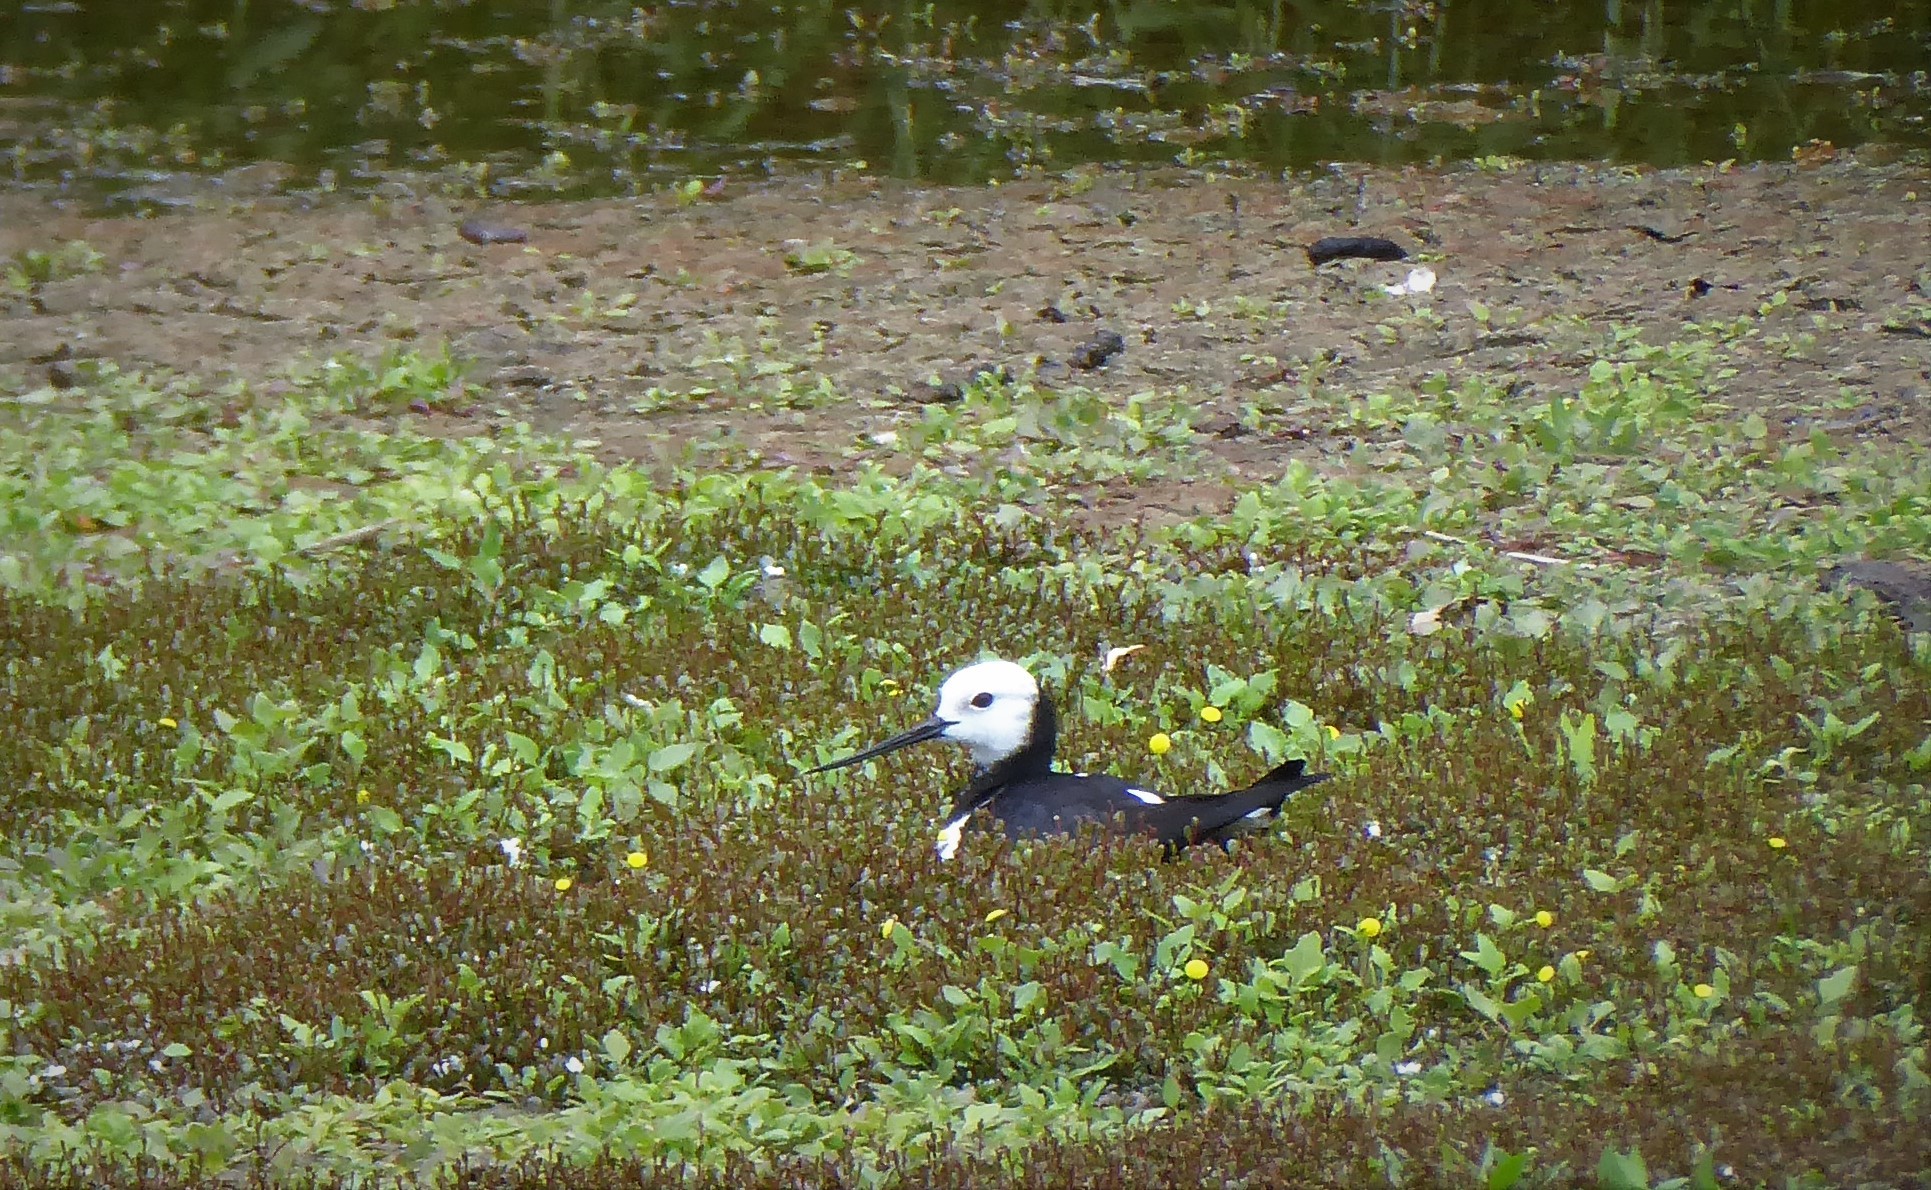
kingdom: Animalia
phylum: Chordata
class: Aves
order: Charadriiformes
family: Recurvirostridae
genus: Himantopus
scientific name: Himantopus leucocephalus
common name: White-headed stilt
